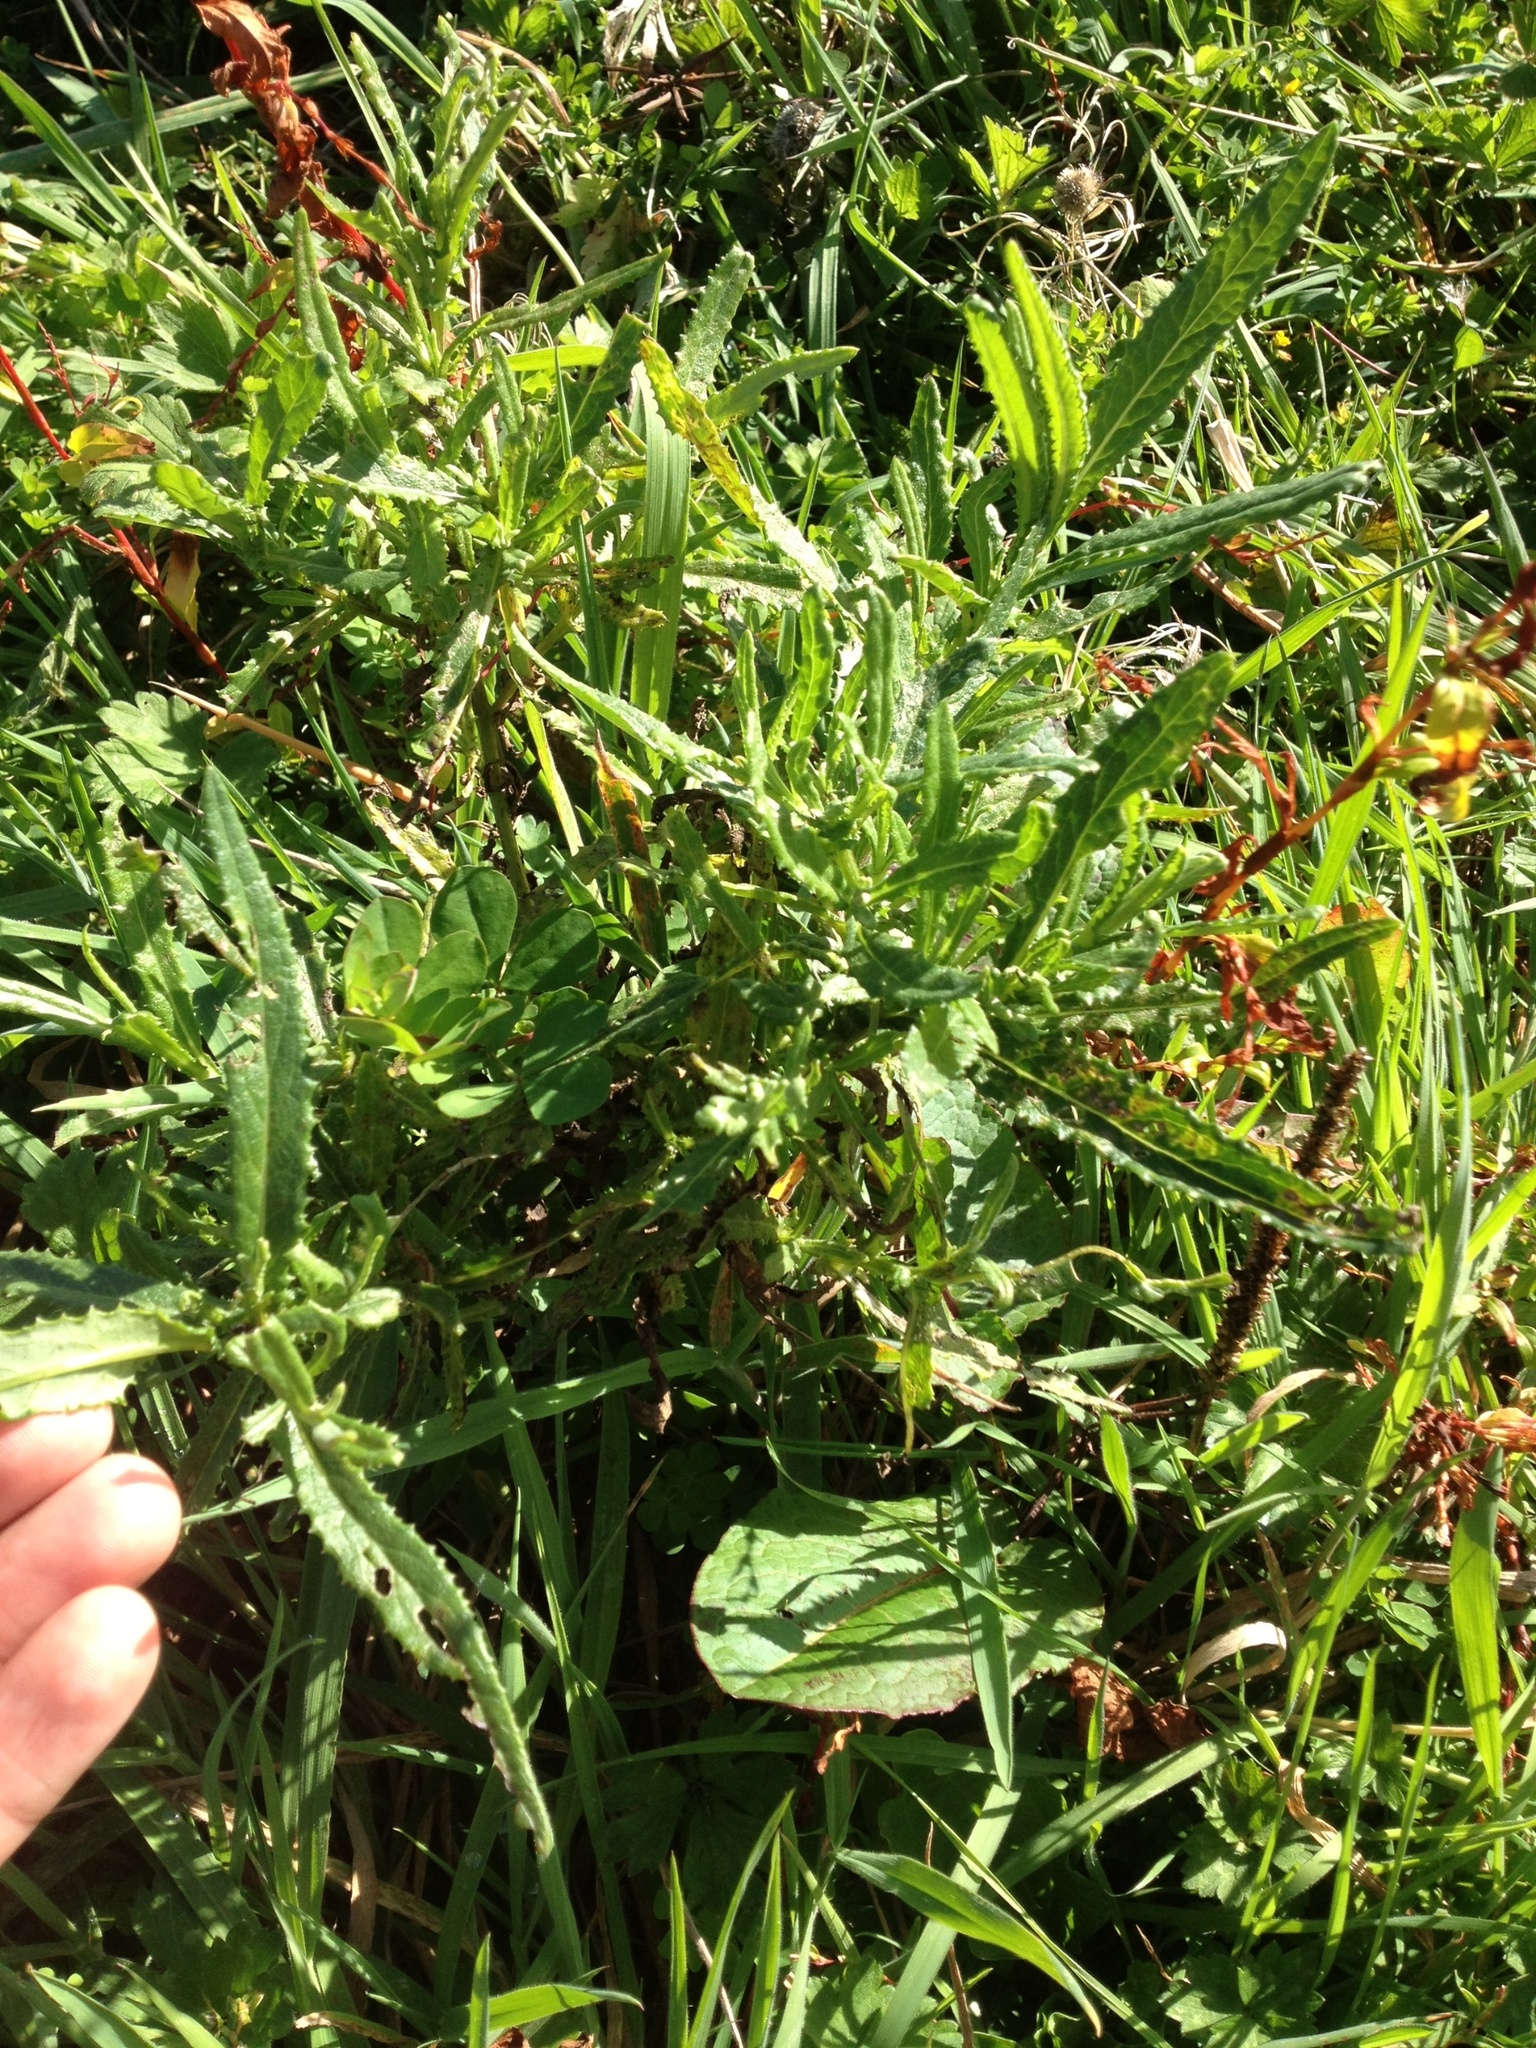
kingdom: Plantae
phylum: Tracheophyta
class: Magnoliopsida
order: Asterales
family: Asteraceae
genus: Senecio
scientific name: Senecio minimus
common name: Toothed fireweed
